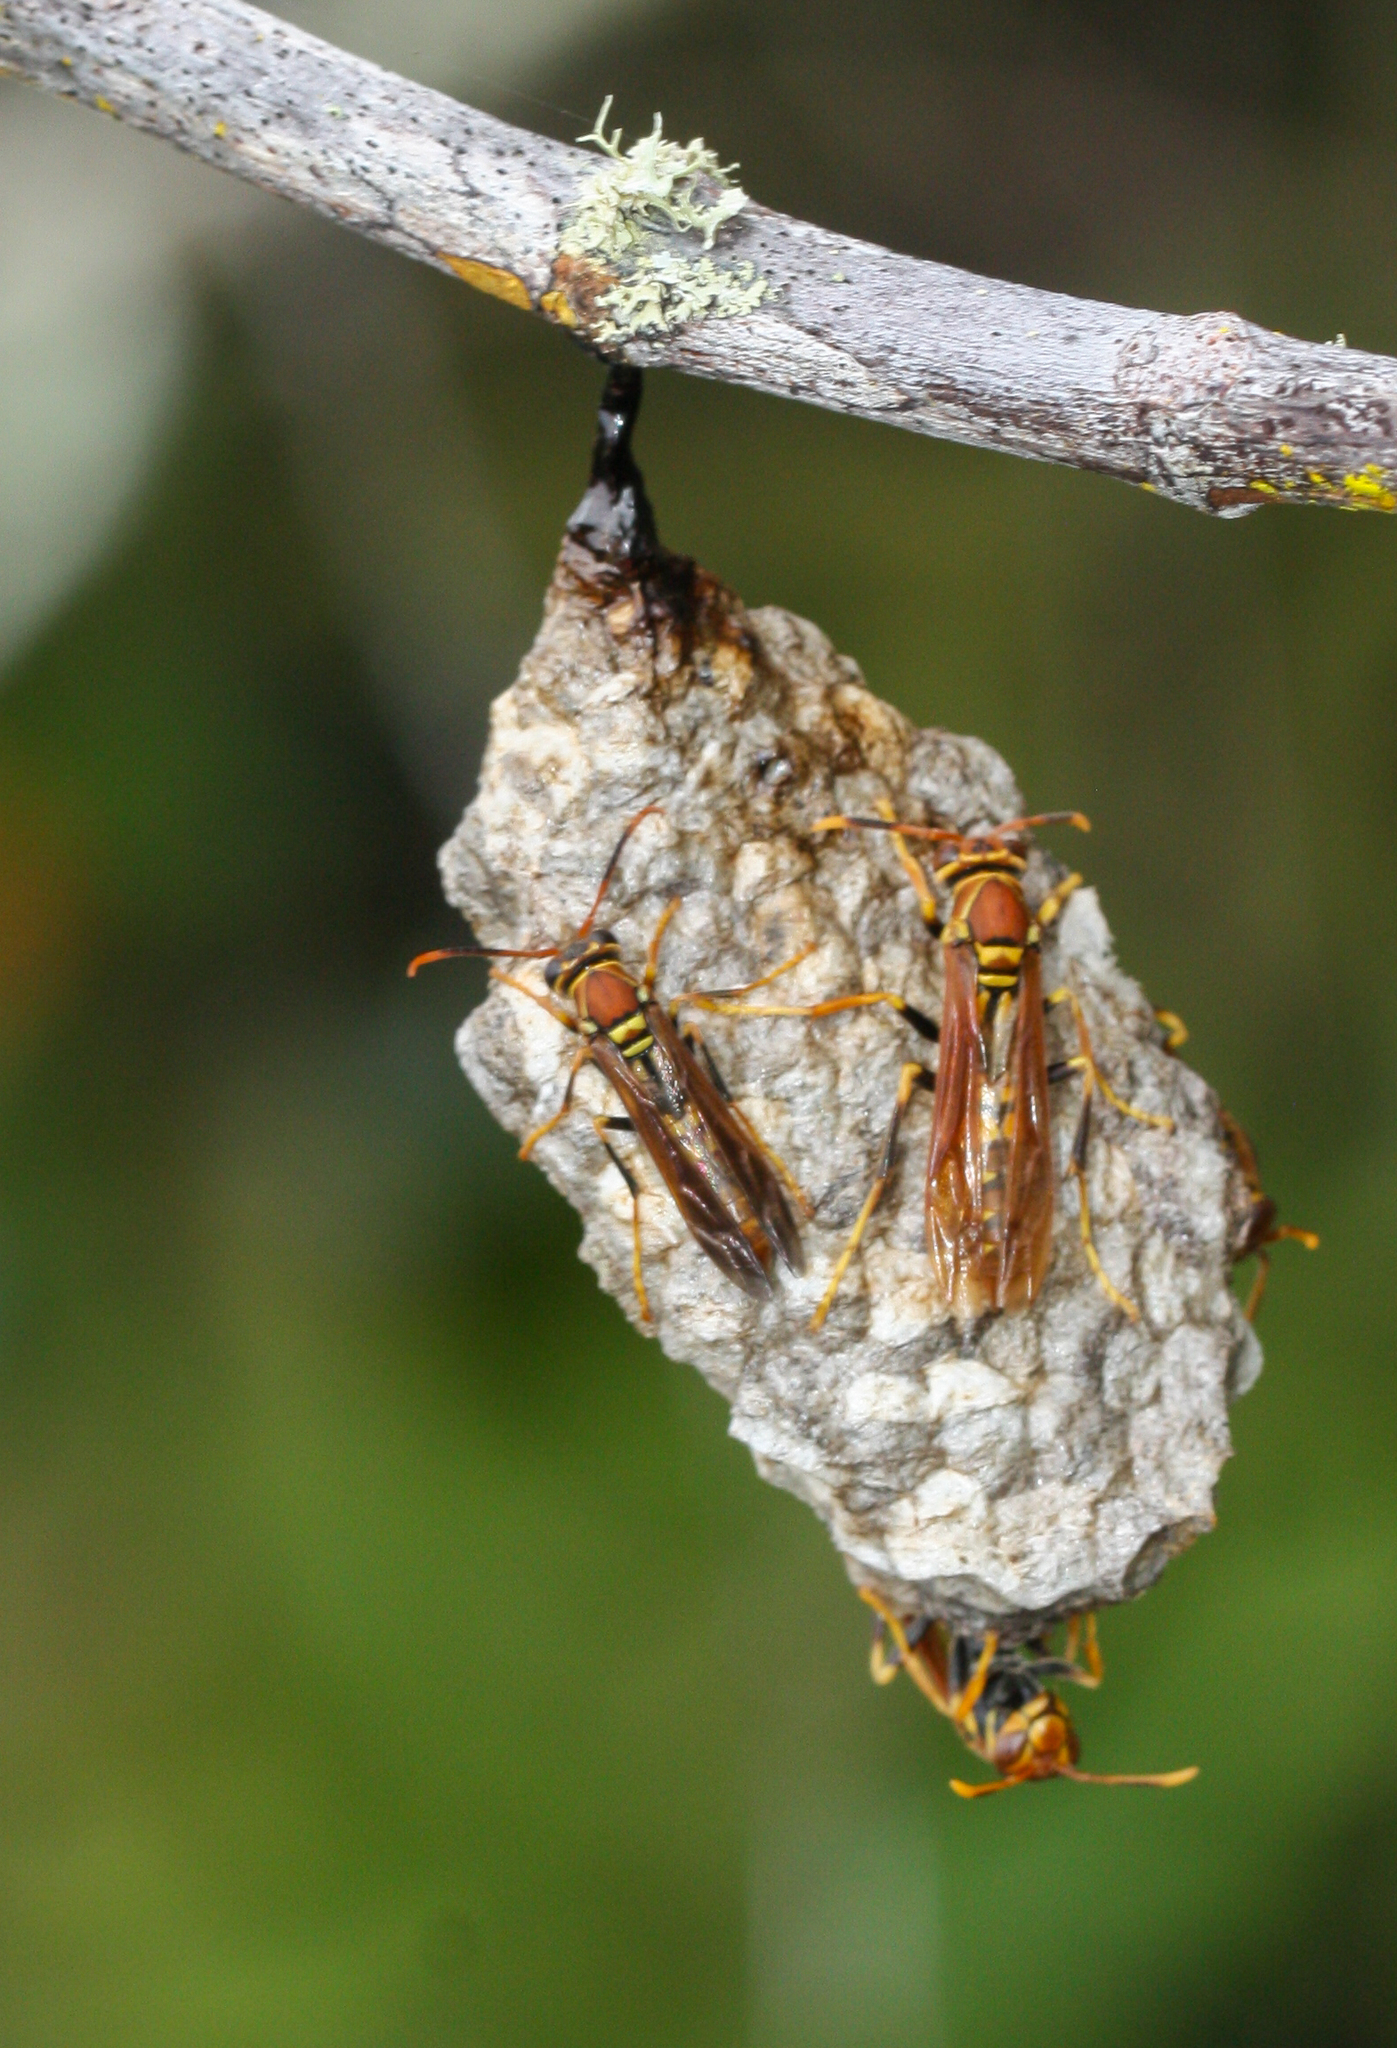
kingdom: Animalia
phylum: Arthropoda
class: Insecta
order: Hymenoptera
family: Eumenidae
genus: Polistes
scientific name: Polistes versicolor
